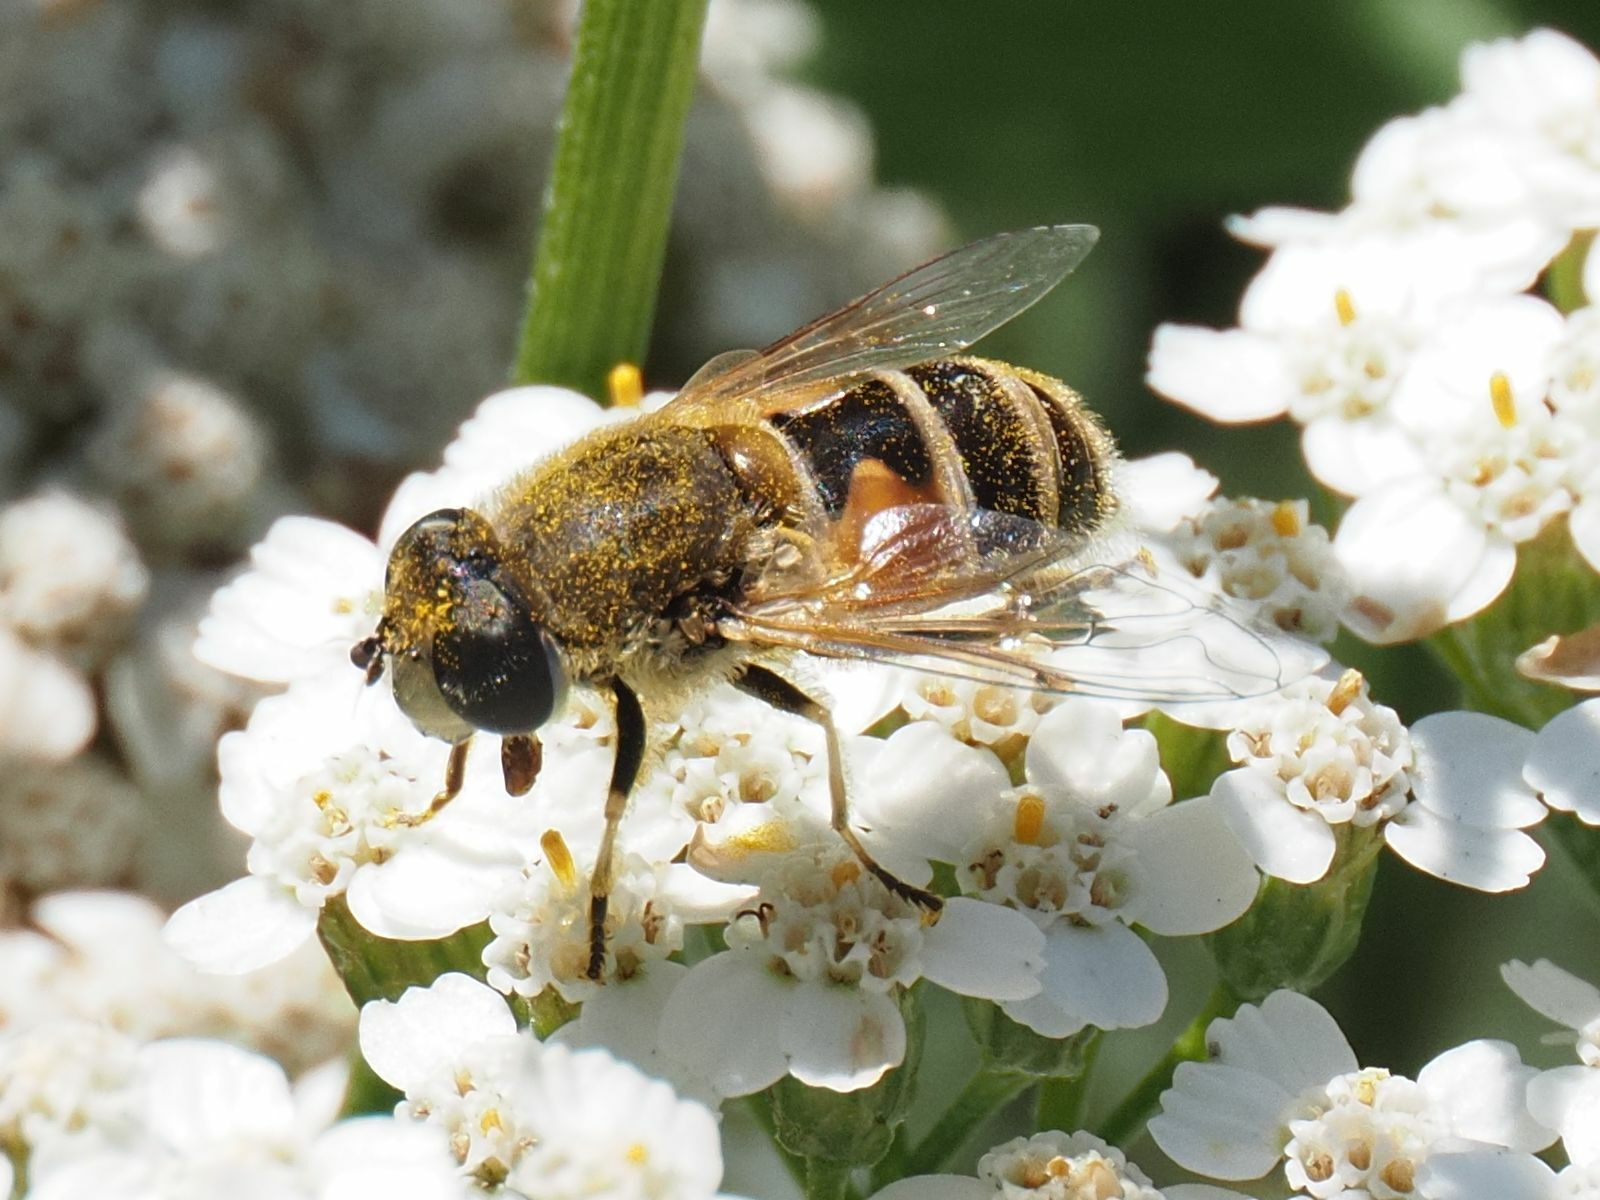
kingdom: Animalia
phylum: Arthropoda
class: Insecta
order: Diptera
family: Syrphidae
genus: Eristalis
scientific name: Eristalis arbustorum
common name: Hover fly
